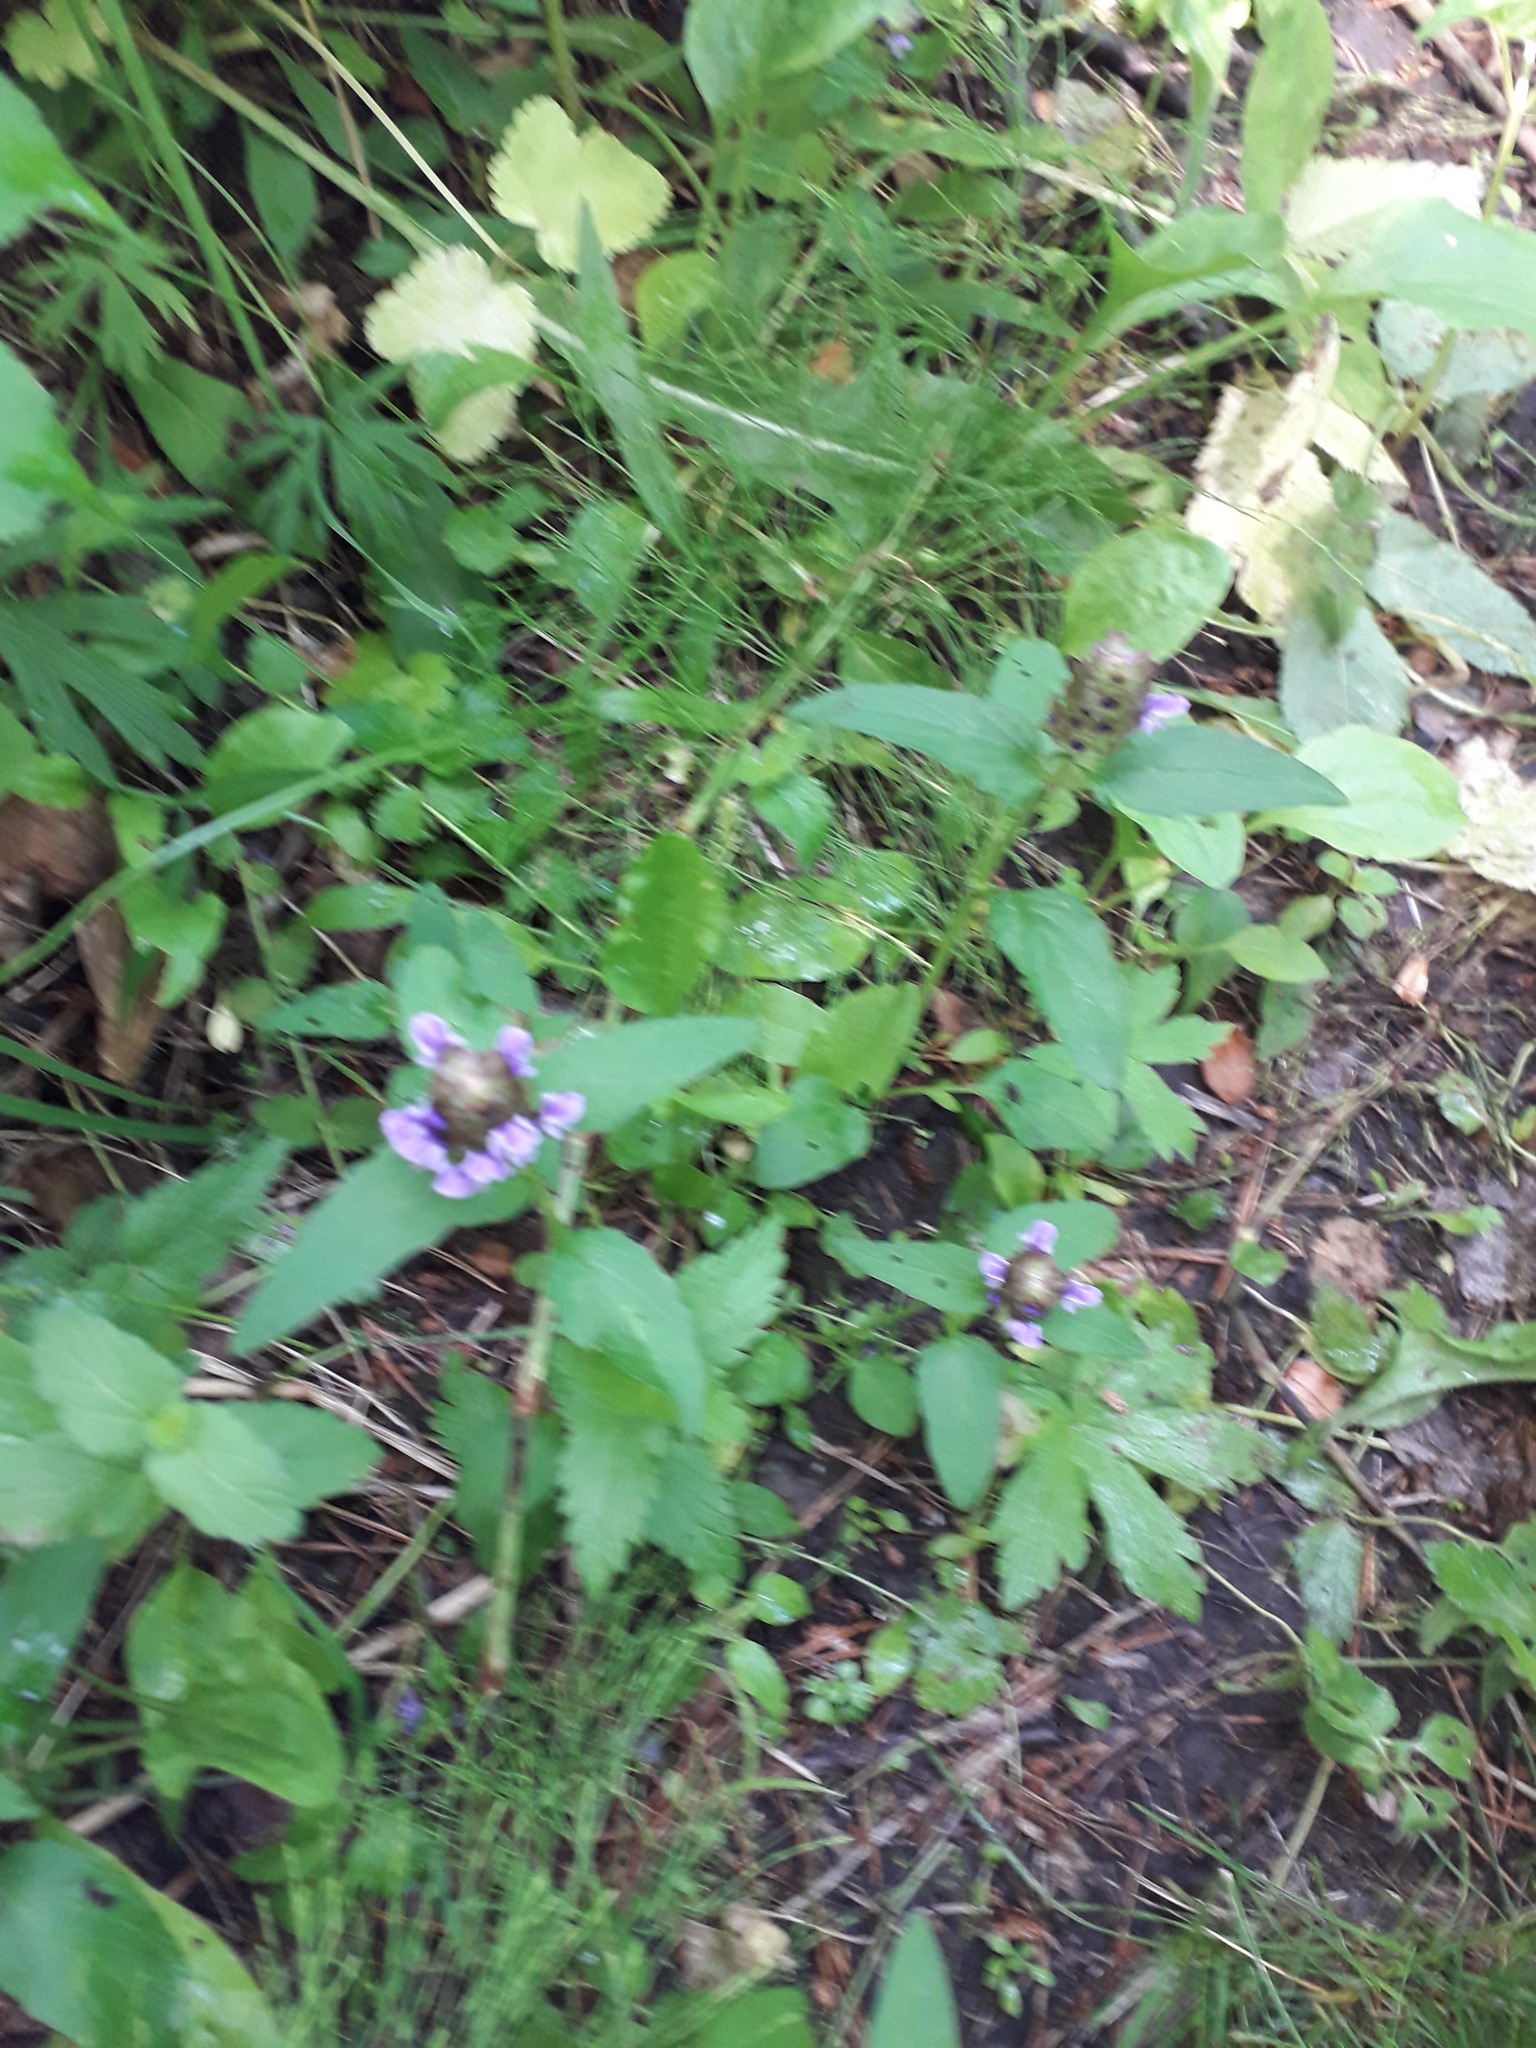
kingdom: Plantae
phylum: Tracheophyta
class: Magnoliopsida
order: Lamiales
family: Lamiaceae
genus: Prunella
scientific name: Prunella vulgaris
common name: Heal-all
